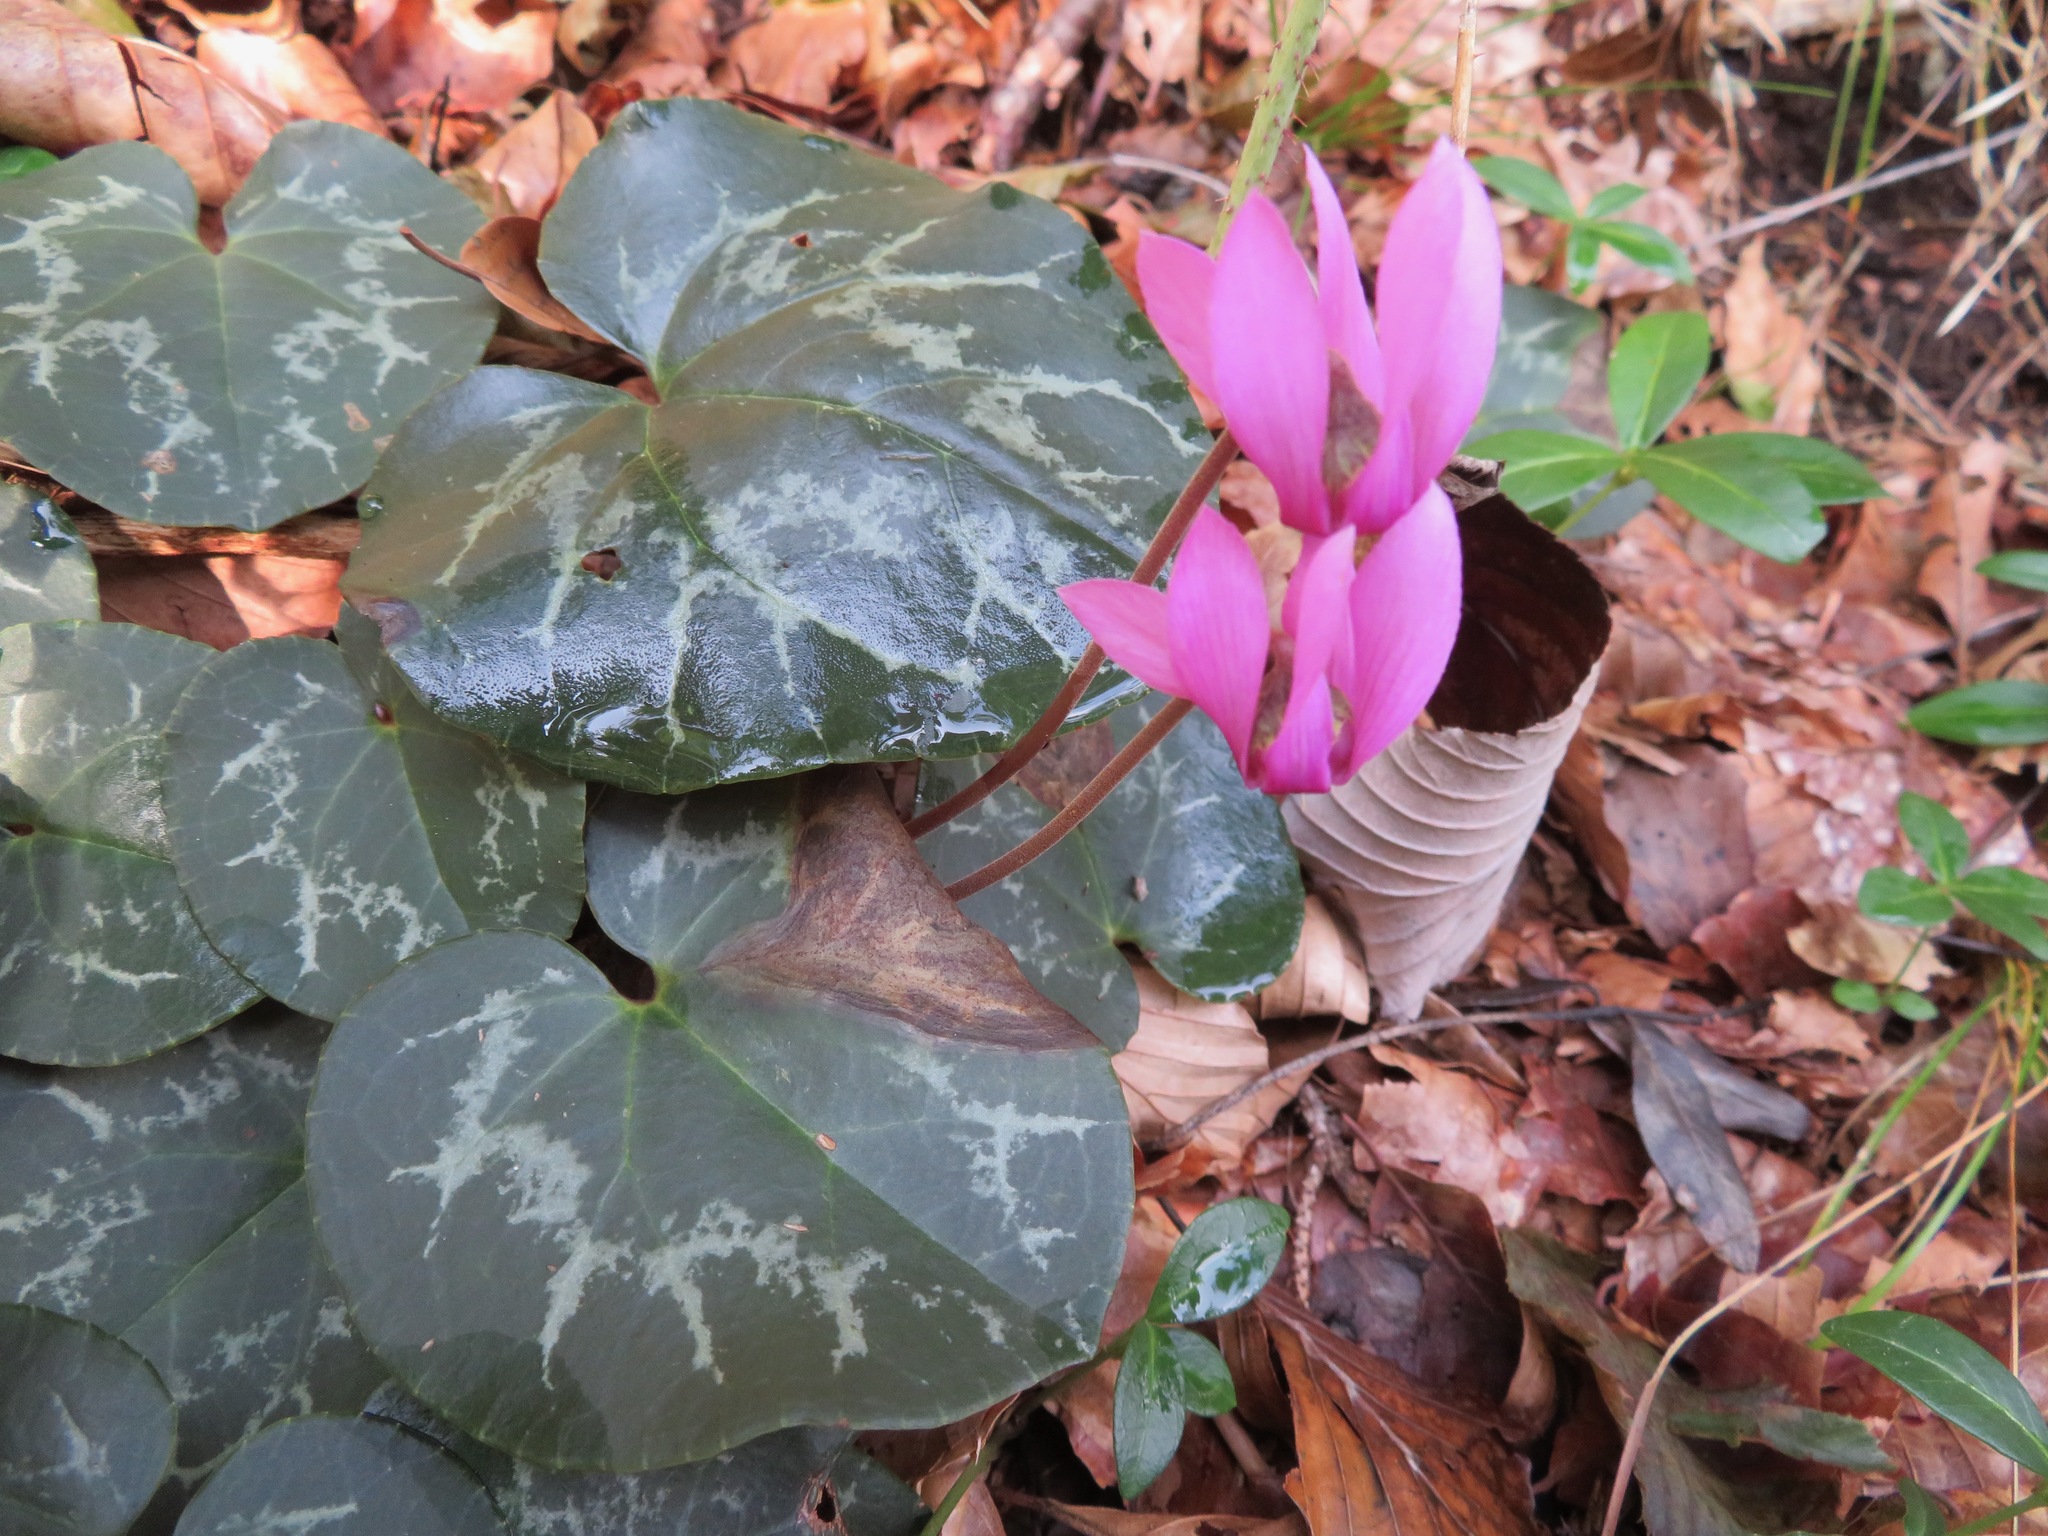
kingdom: Plantae
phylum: Tracheophyta
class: Magnoliopsida
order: Ericales
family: Primulaceae
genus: Cyclamen
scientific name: Cyclamen purpurascens
